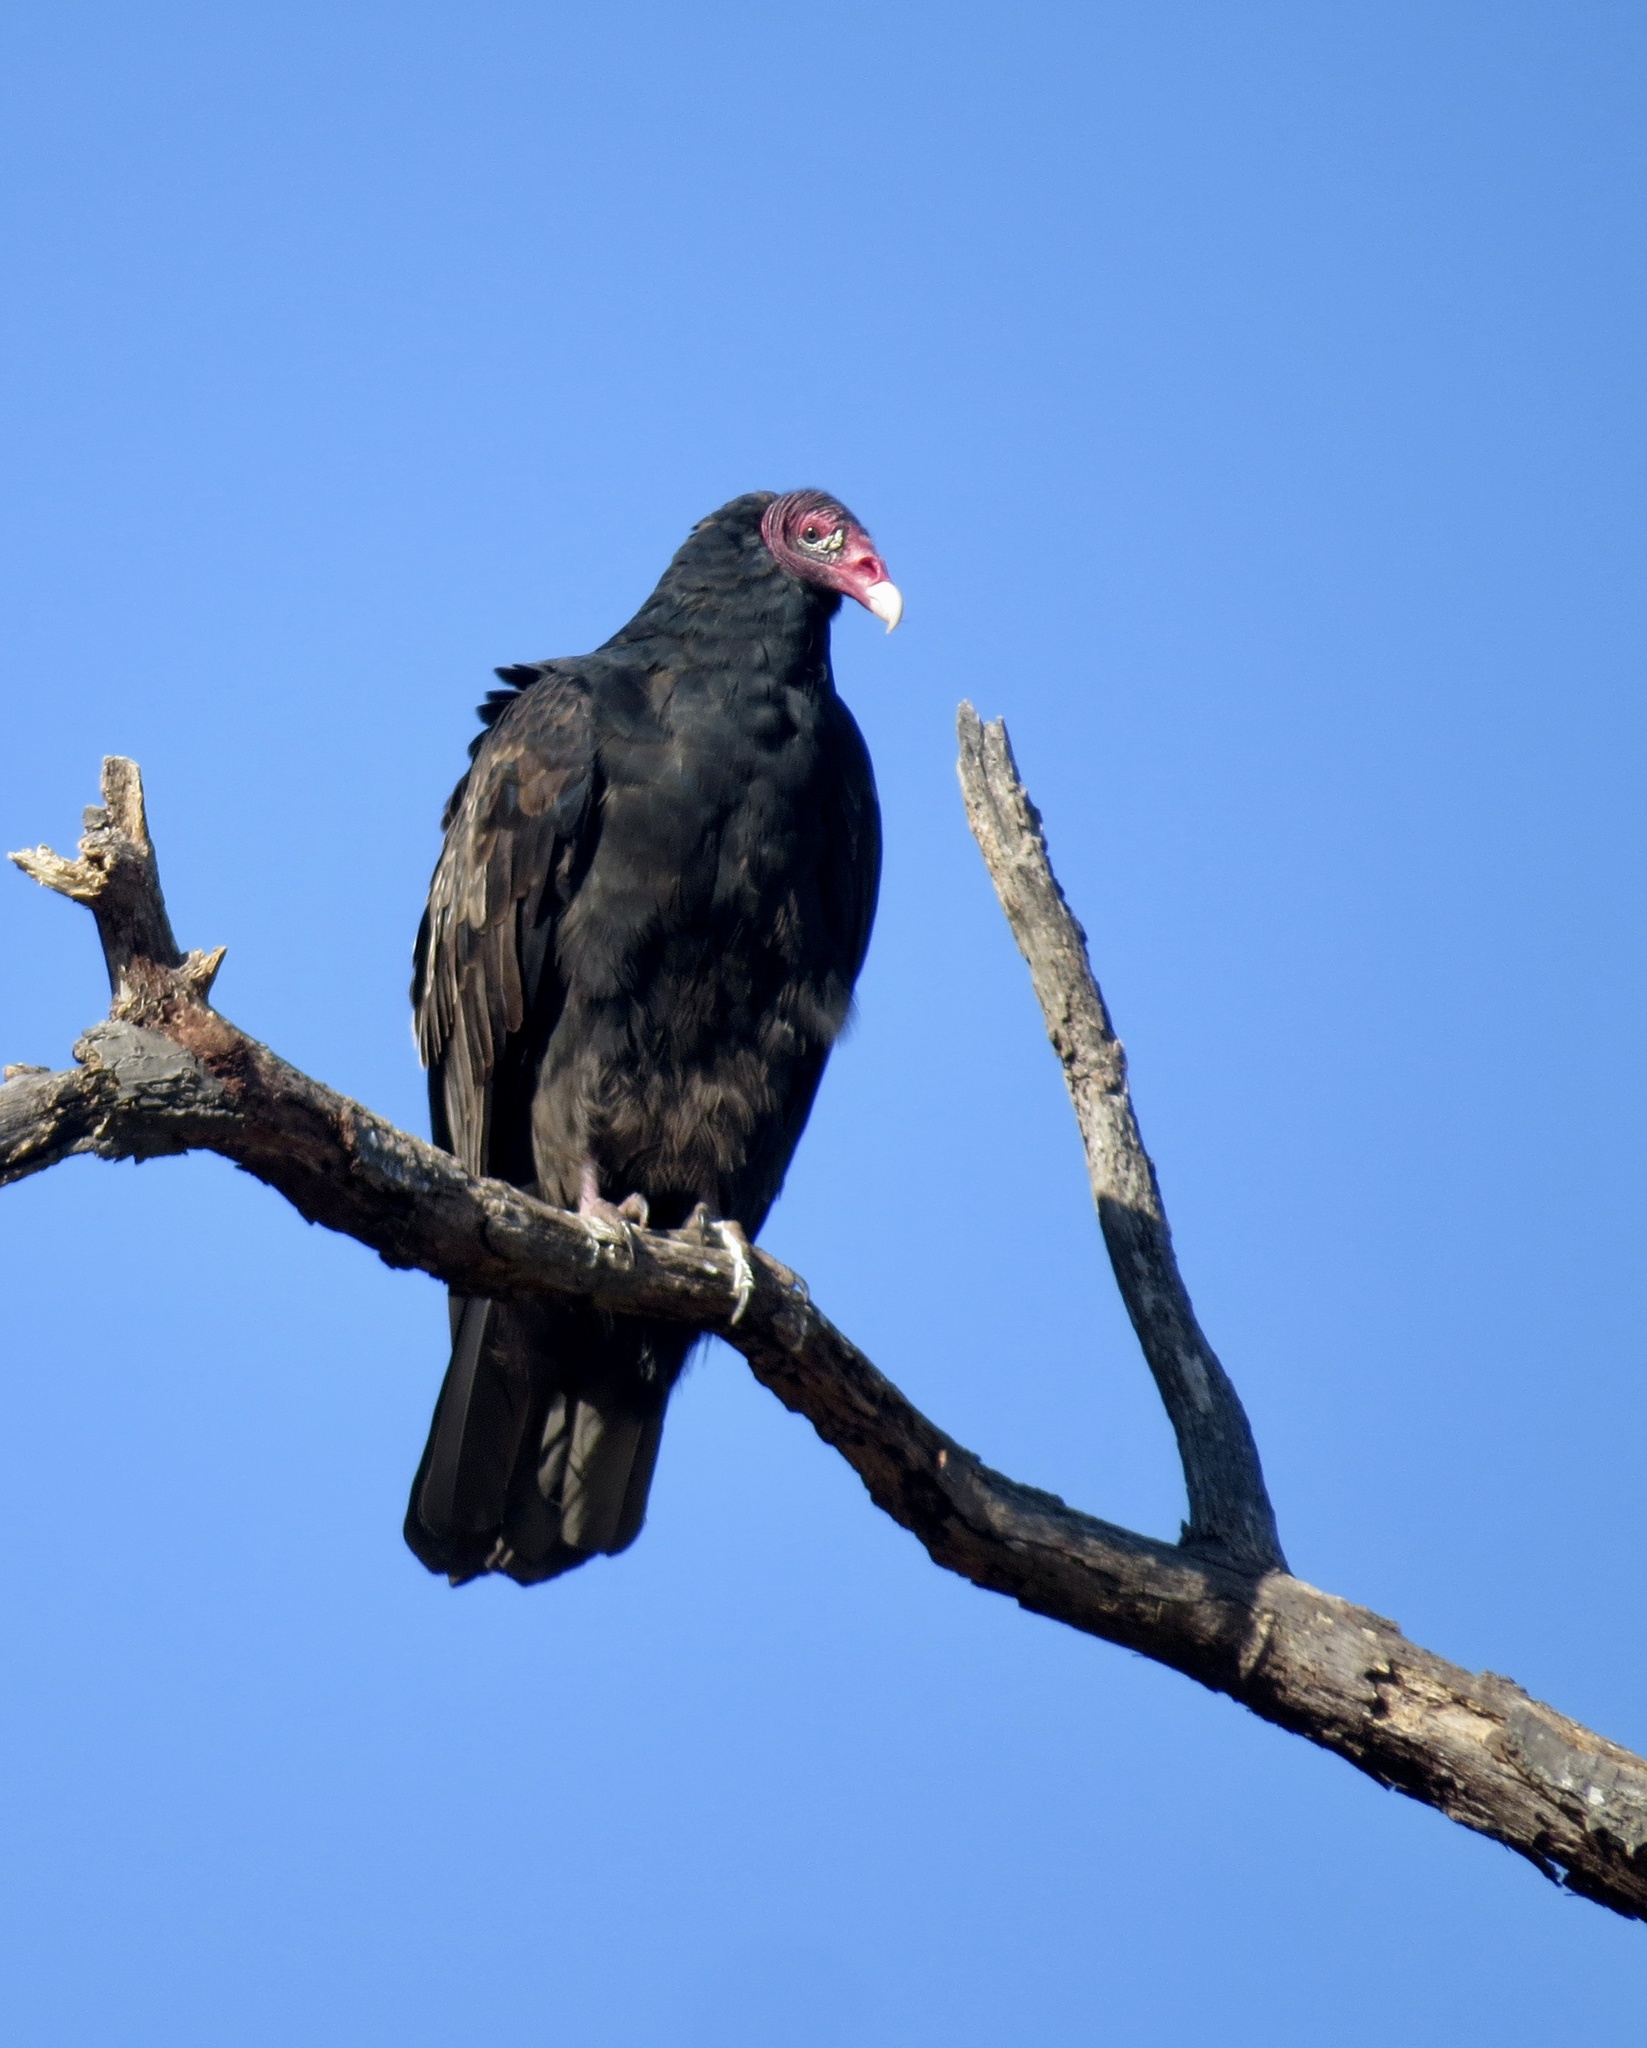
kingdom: Animalia
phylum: Chordata
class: Aves
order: Accipitriformes
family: Cathartidae
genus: Cathartes
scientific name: Cathartes aura
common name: Turkey vulture
